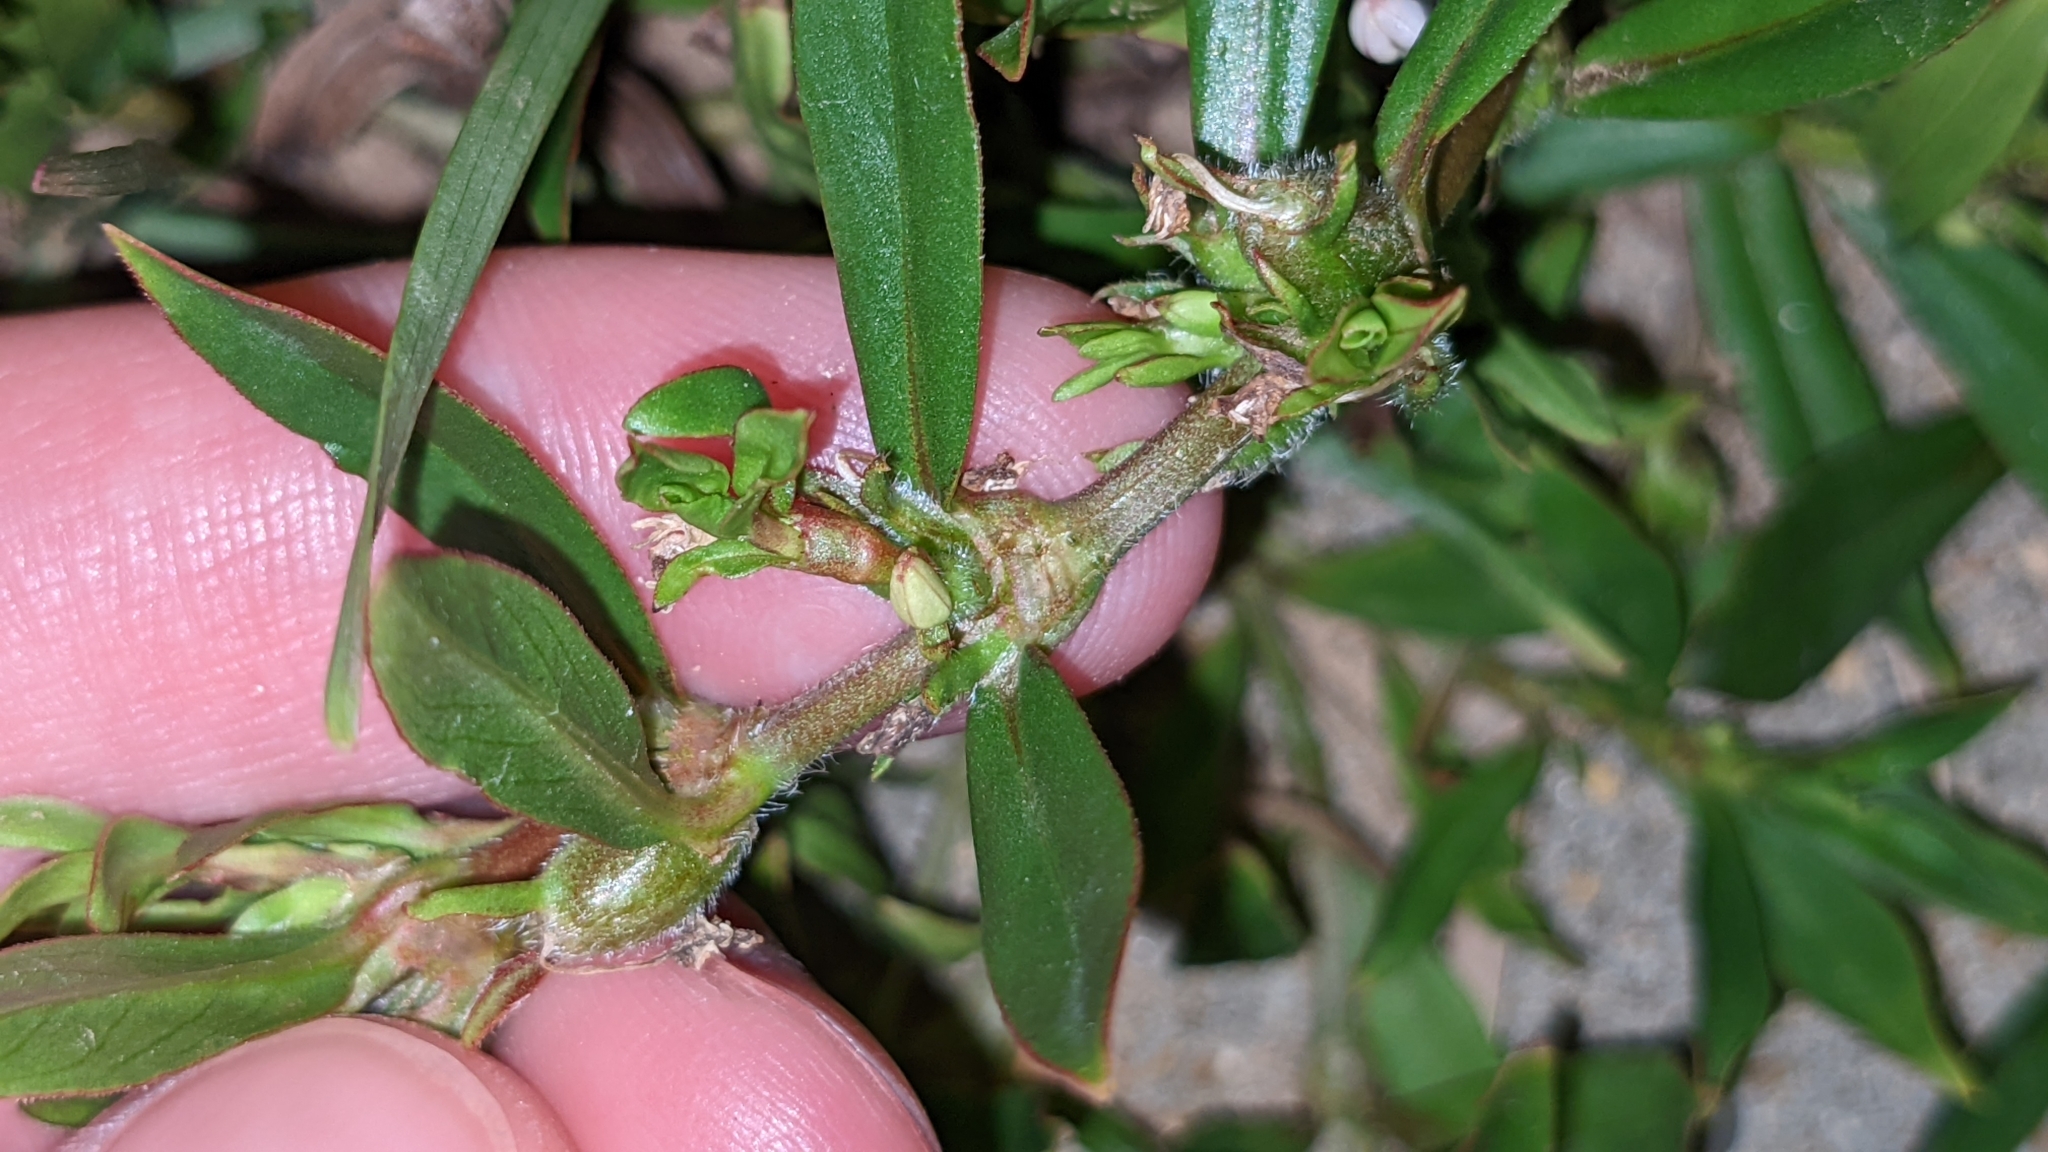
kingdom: Plantae
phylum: Tracheophyta
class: Magnoliopsida
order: Gentianales
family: Rubiaceae
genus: Diodia
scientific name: Diodia virginiana
